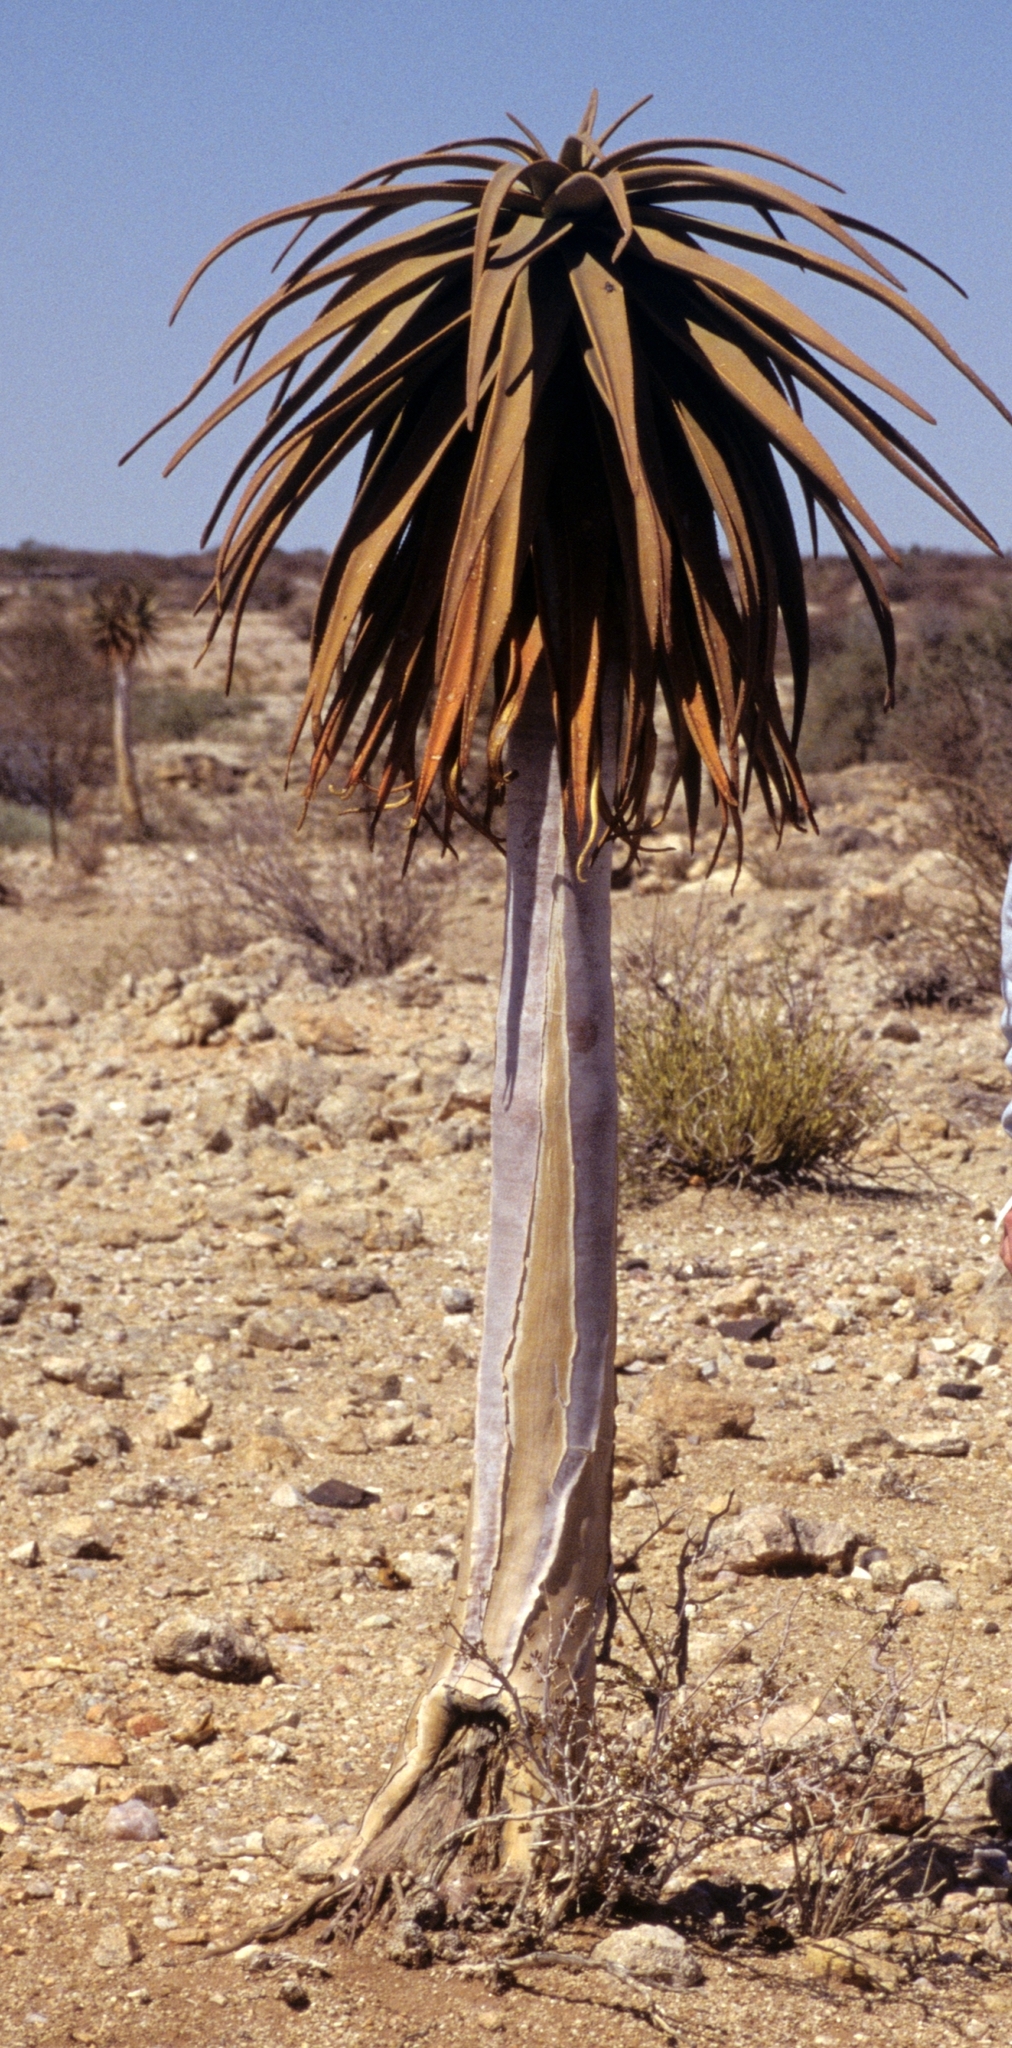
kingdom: Plantae
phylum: Tracheophyta
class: Liliopsida
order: Asparagales
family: Asphodelaceae
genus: Aloidendron
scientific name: Aloidendron dichotomum
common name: Quiver tree
